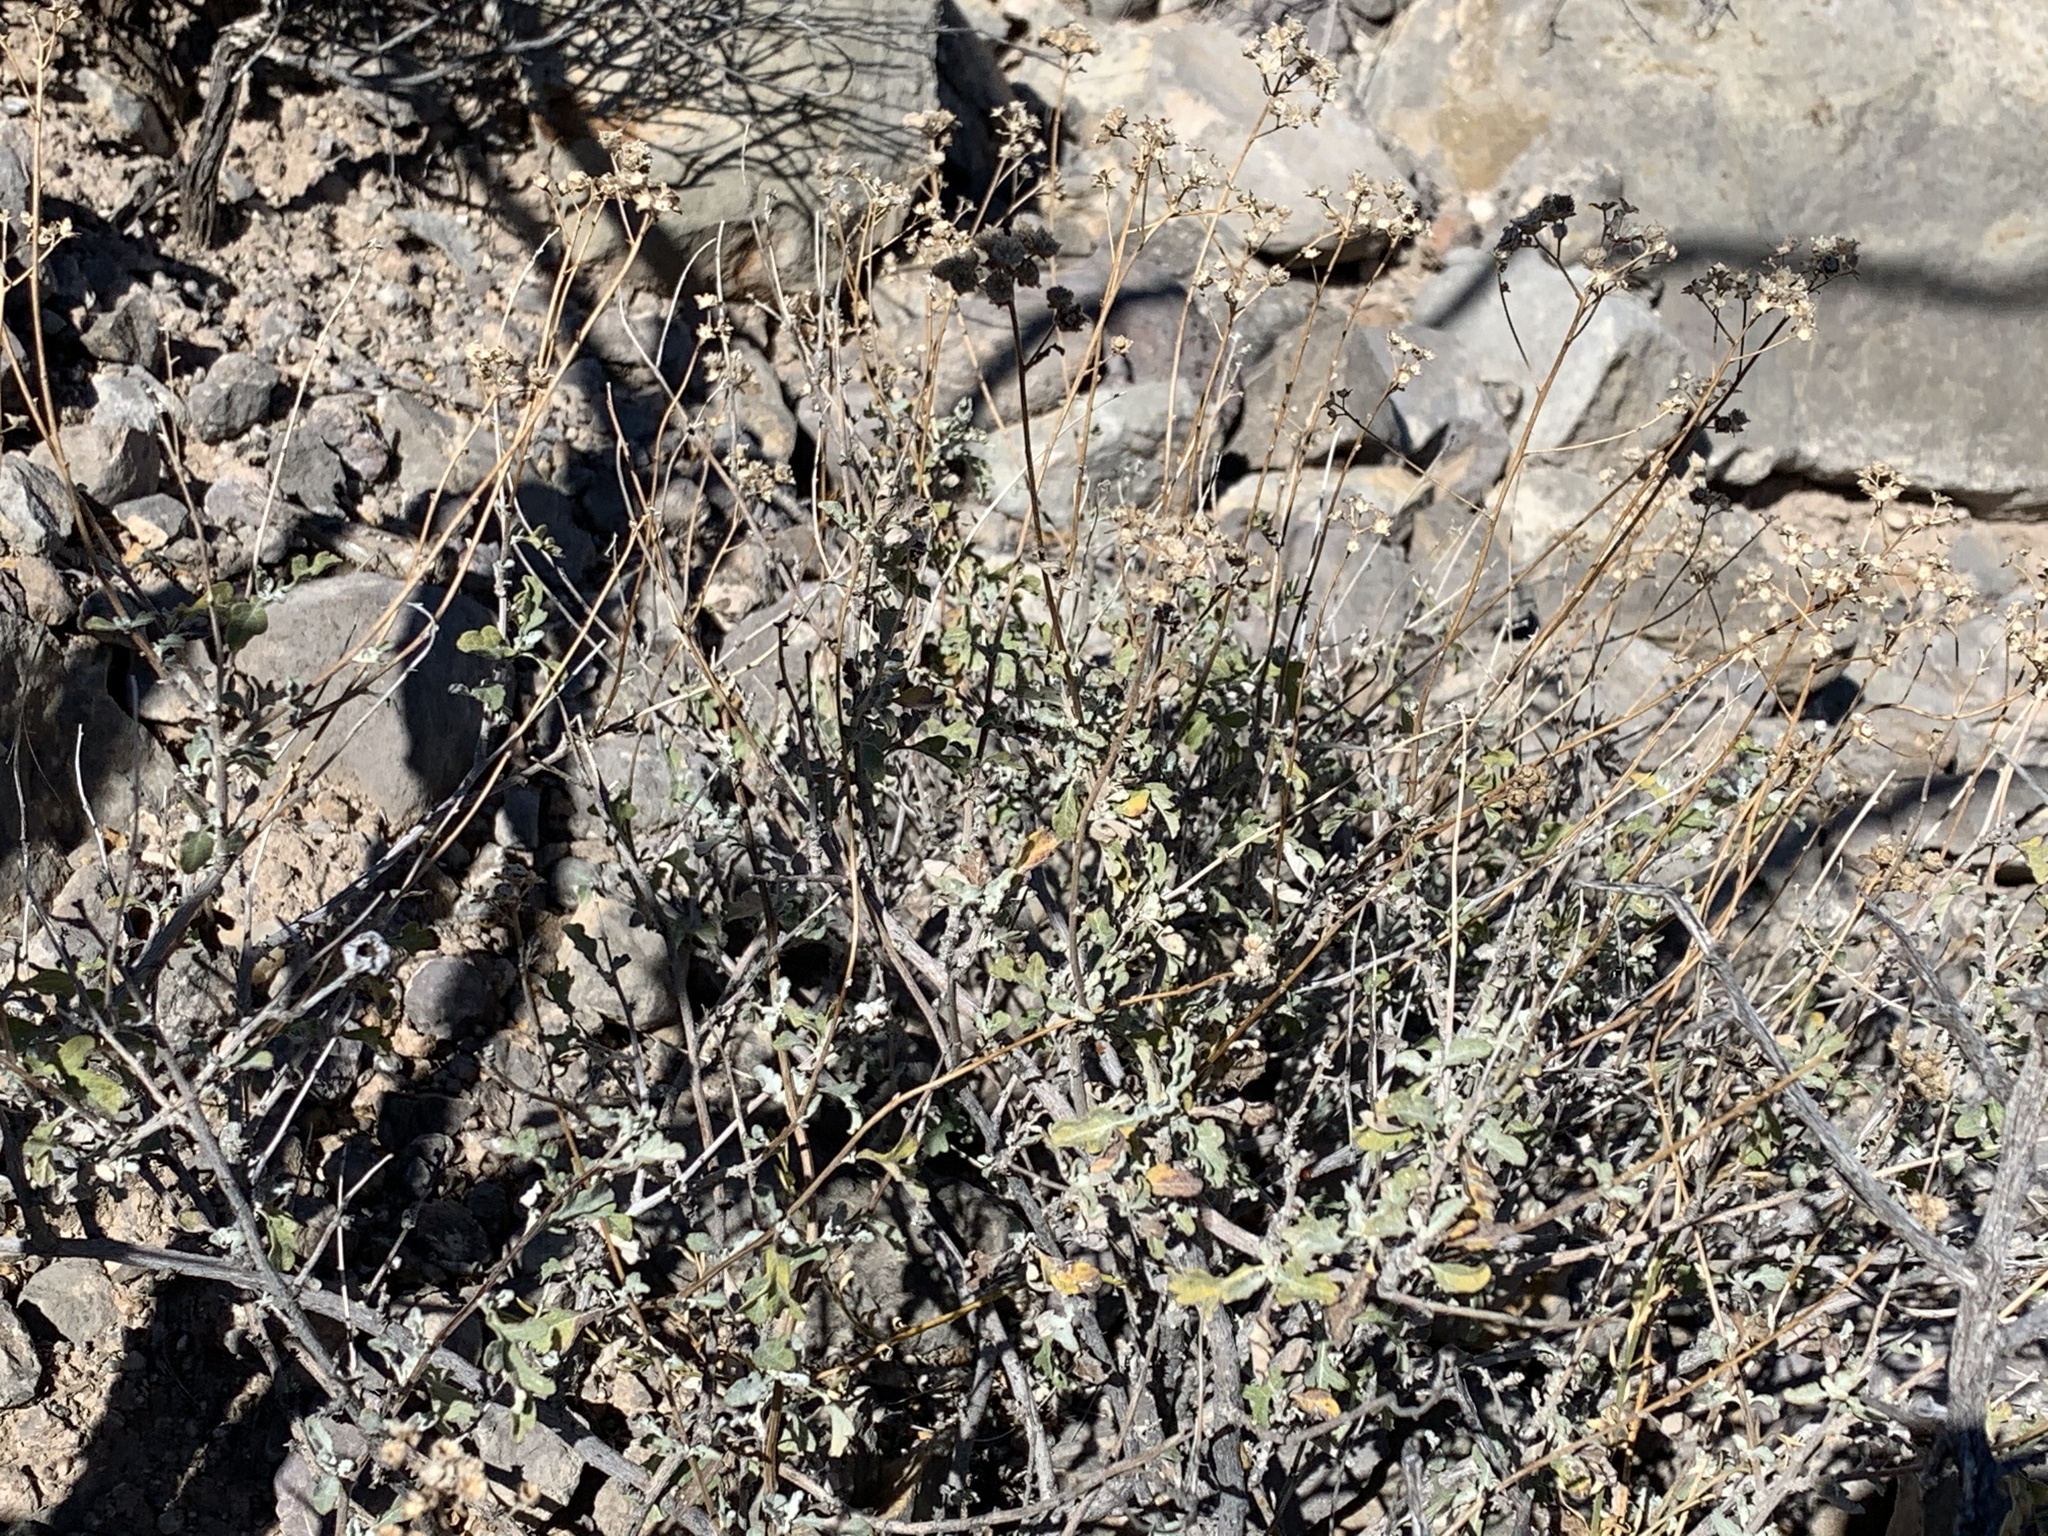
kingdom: Plantae
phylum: Tracheophyta
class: Magnoliopsida
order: Asterales
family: Asteraceae
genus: Parthenium
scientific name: Parthenium incanum
